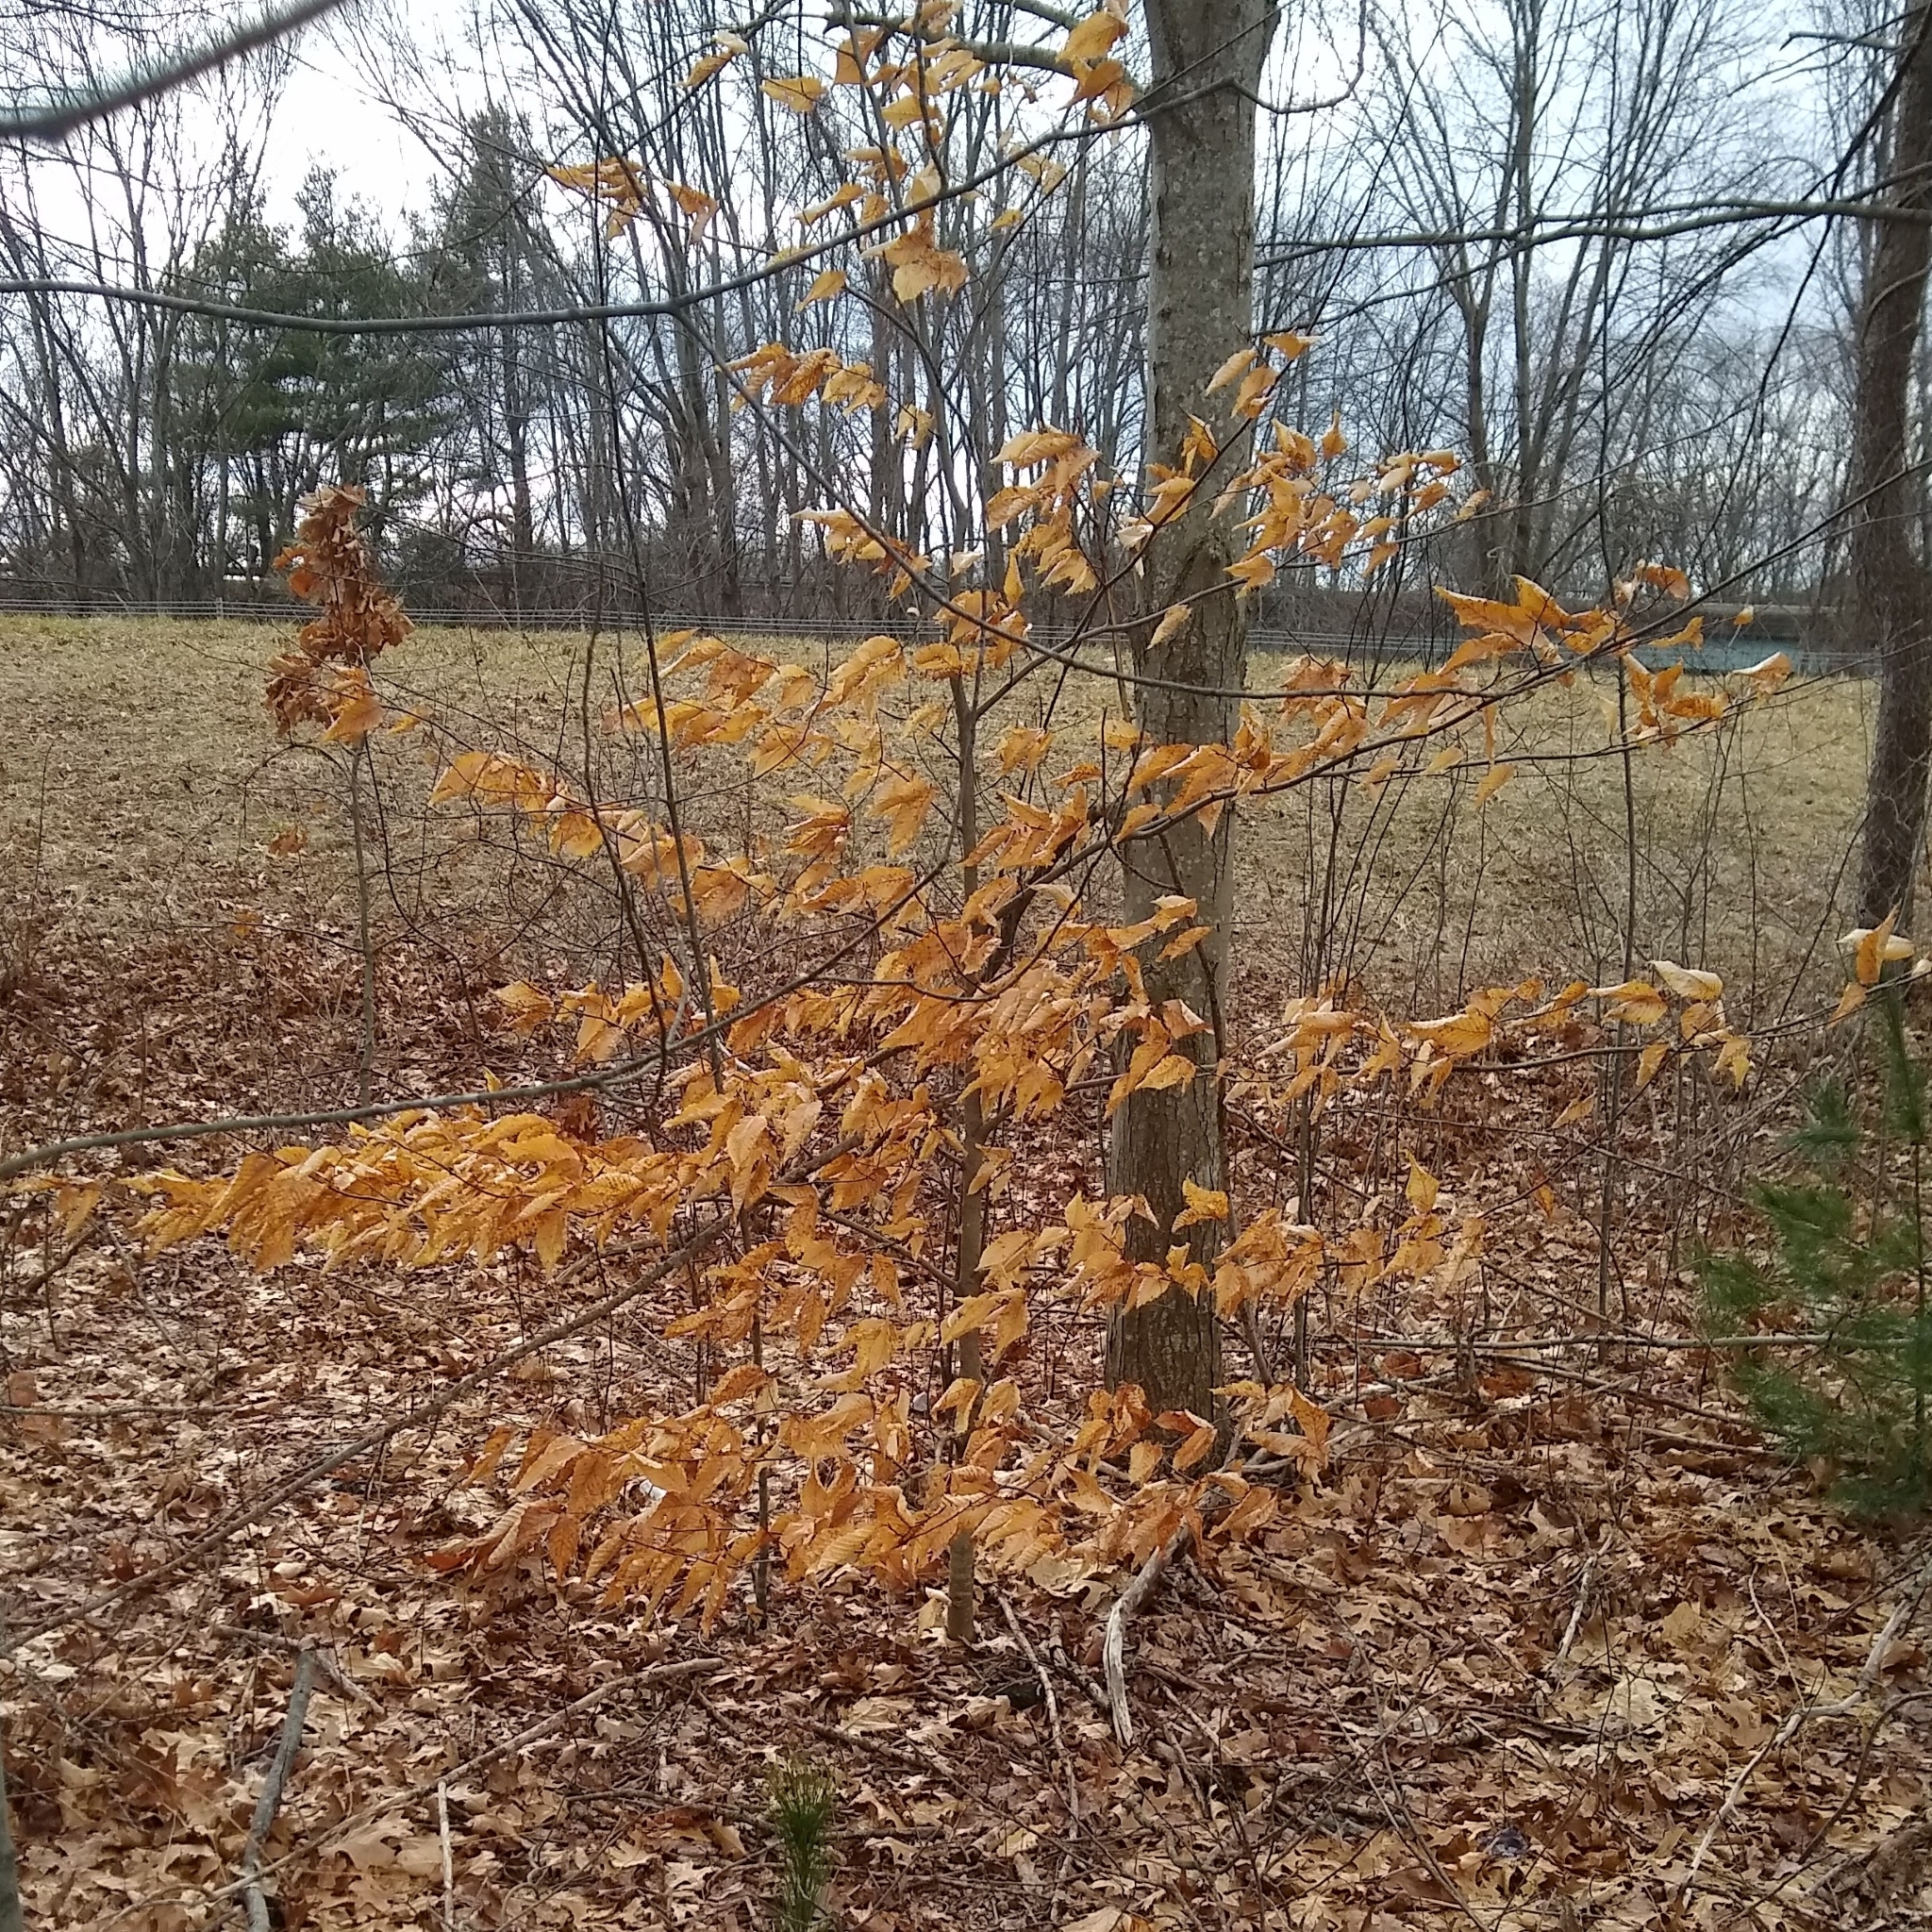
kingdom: Plantae
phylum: Tracheophyta
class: Magnoliopsida
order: Fagales
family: Fagaceae
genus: Fagus
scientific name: Fagus grandifolia
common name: American beech
